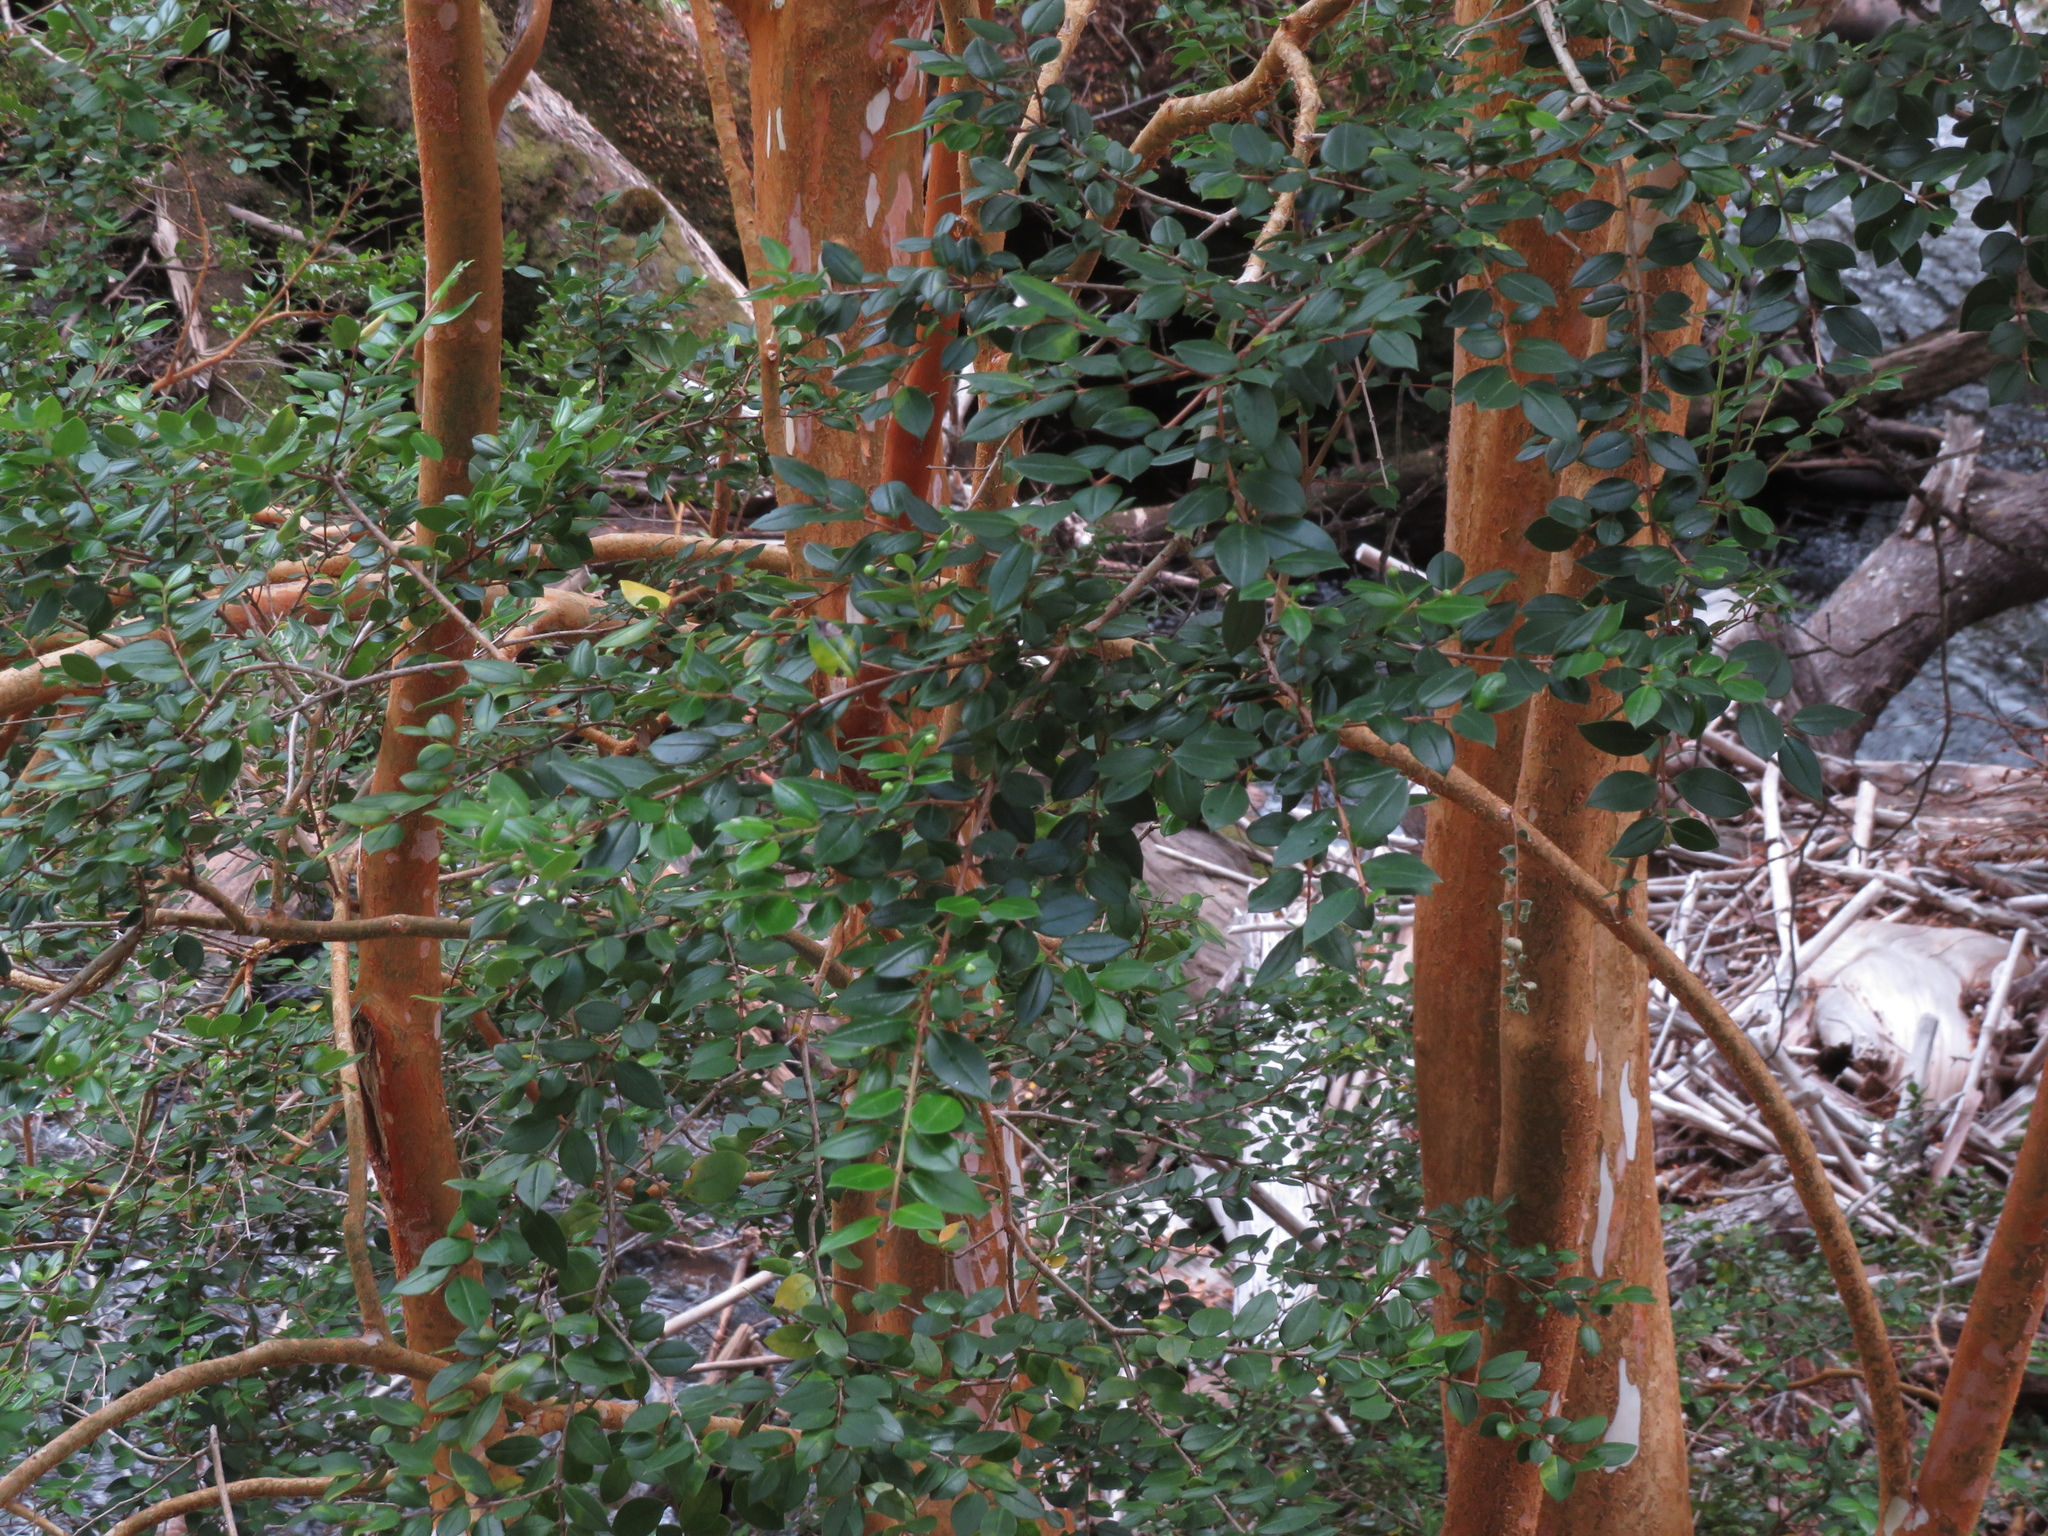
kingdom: Plantae
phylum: Tracheophyta
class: Magnoliopsida
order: Myrtales
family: Myrtaceae
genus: Luma
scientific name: Luma apiculata
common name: Chilean myrtle
